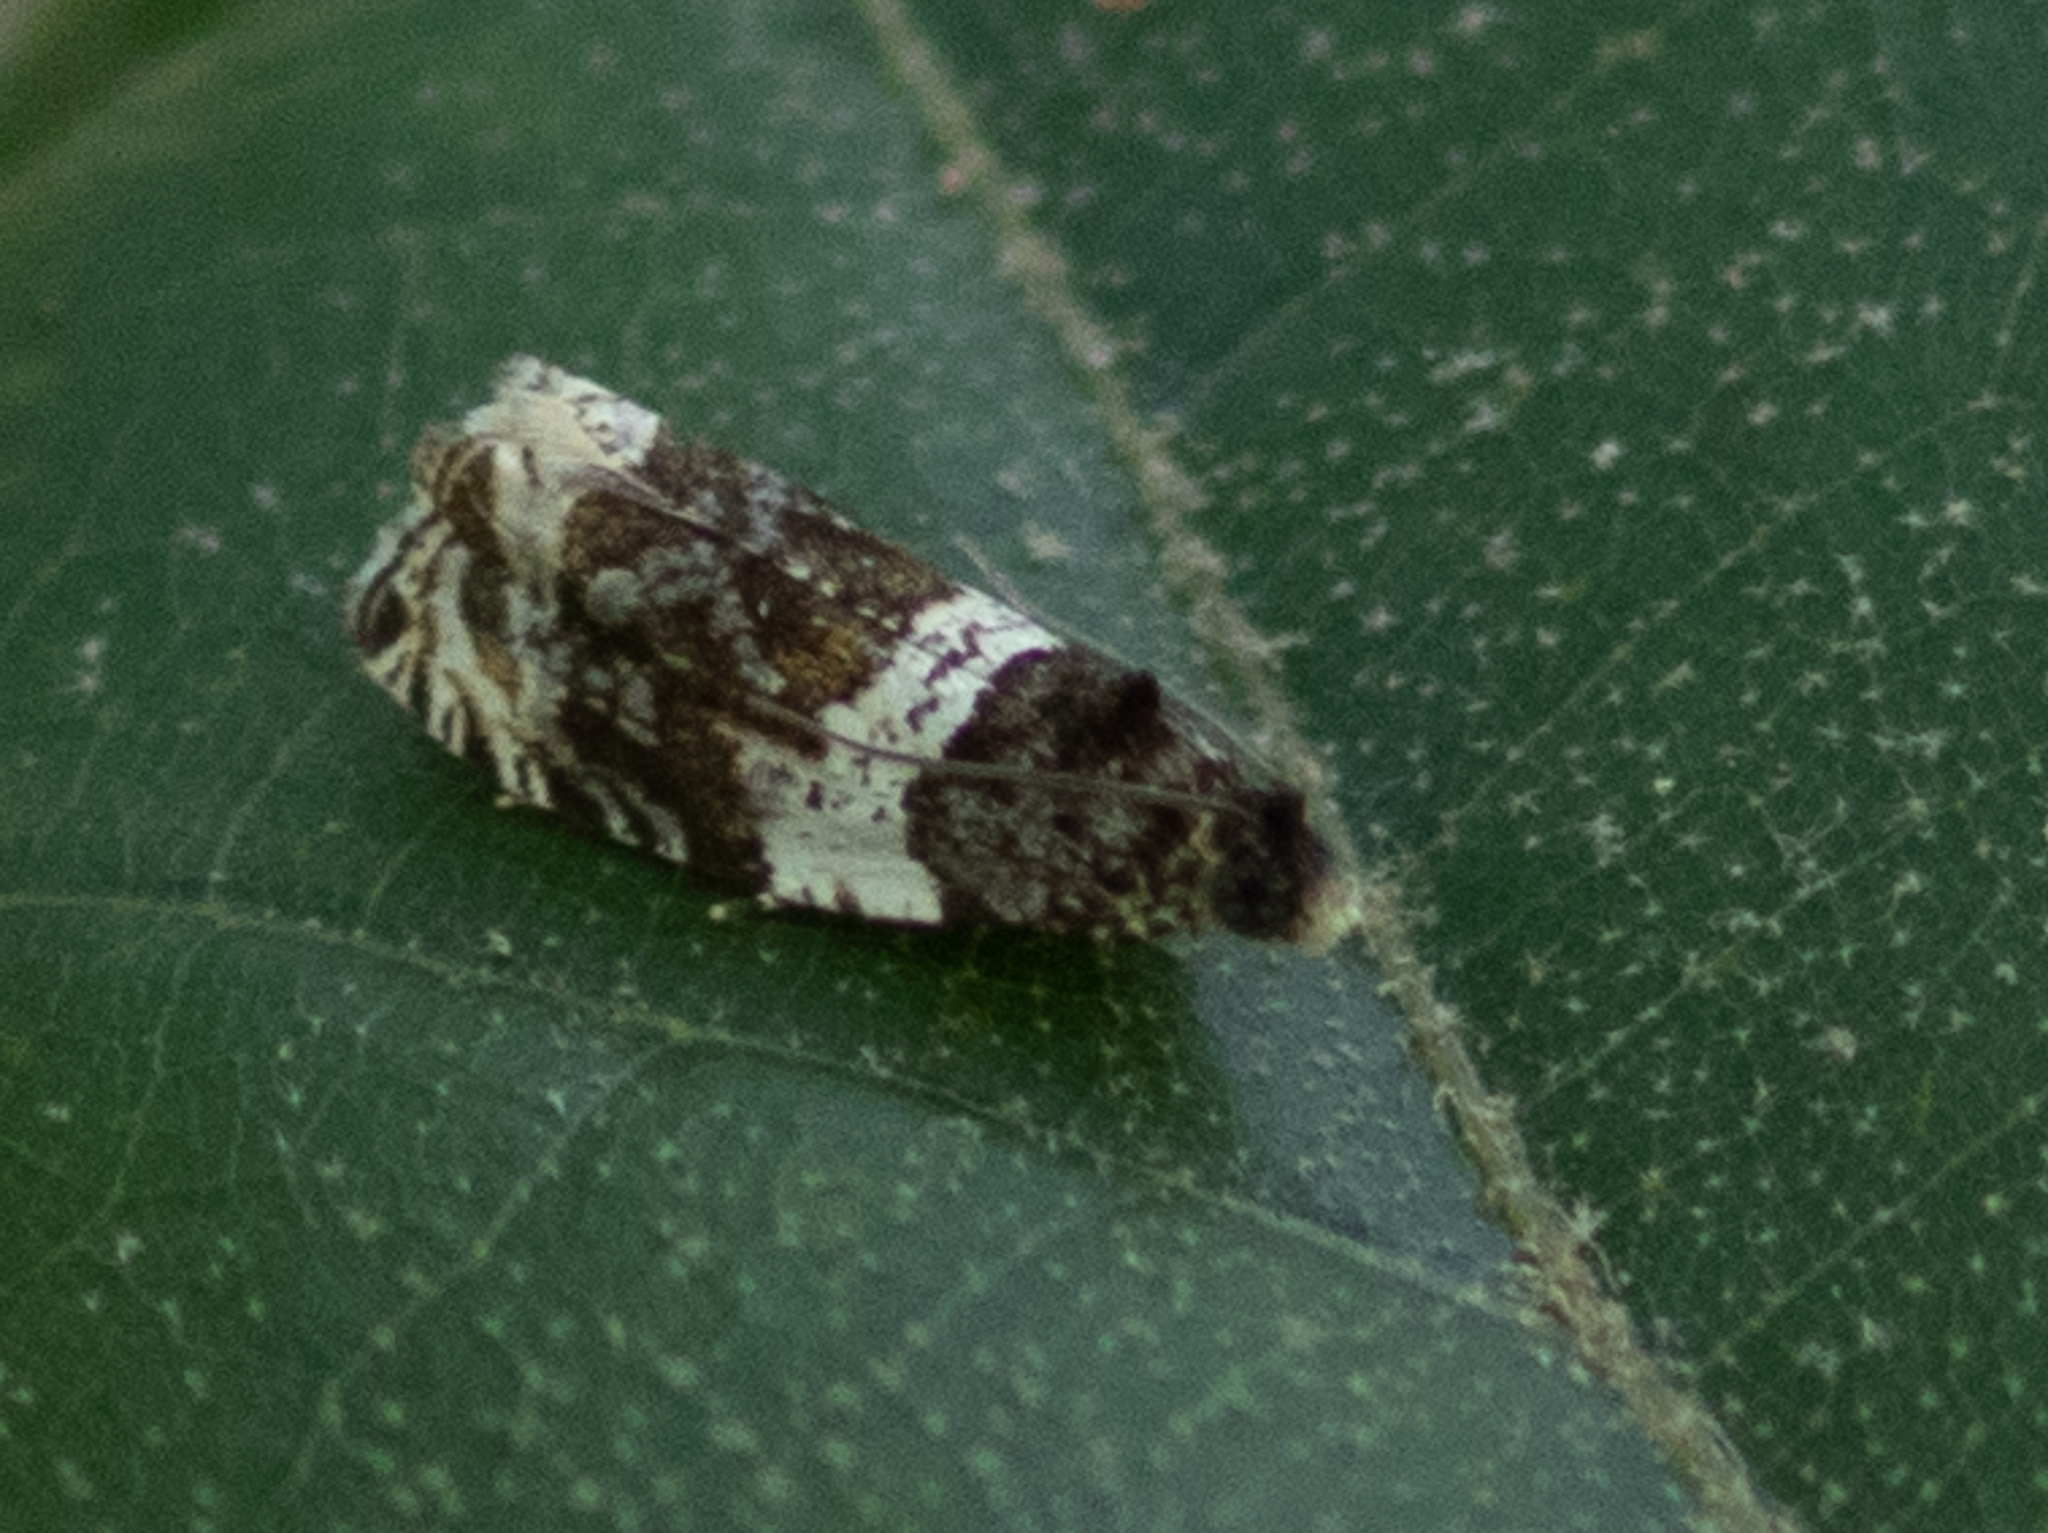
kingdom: Animalia
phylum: Arthropoda
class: Insecta
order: Lepidoptera
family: Tortricidae
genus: Olethreutes
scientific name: Olethreutes fasciatana
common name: Banded olethreutes moth
